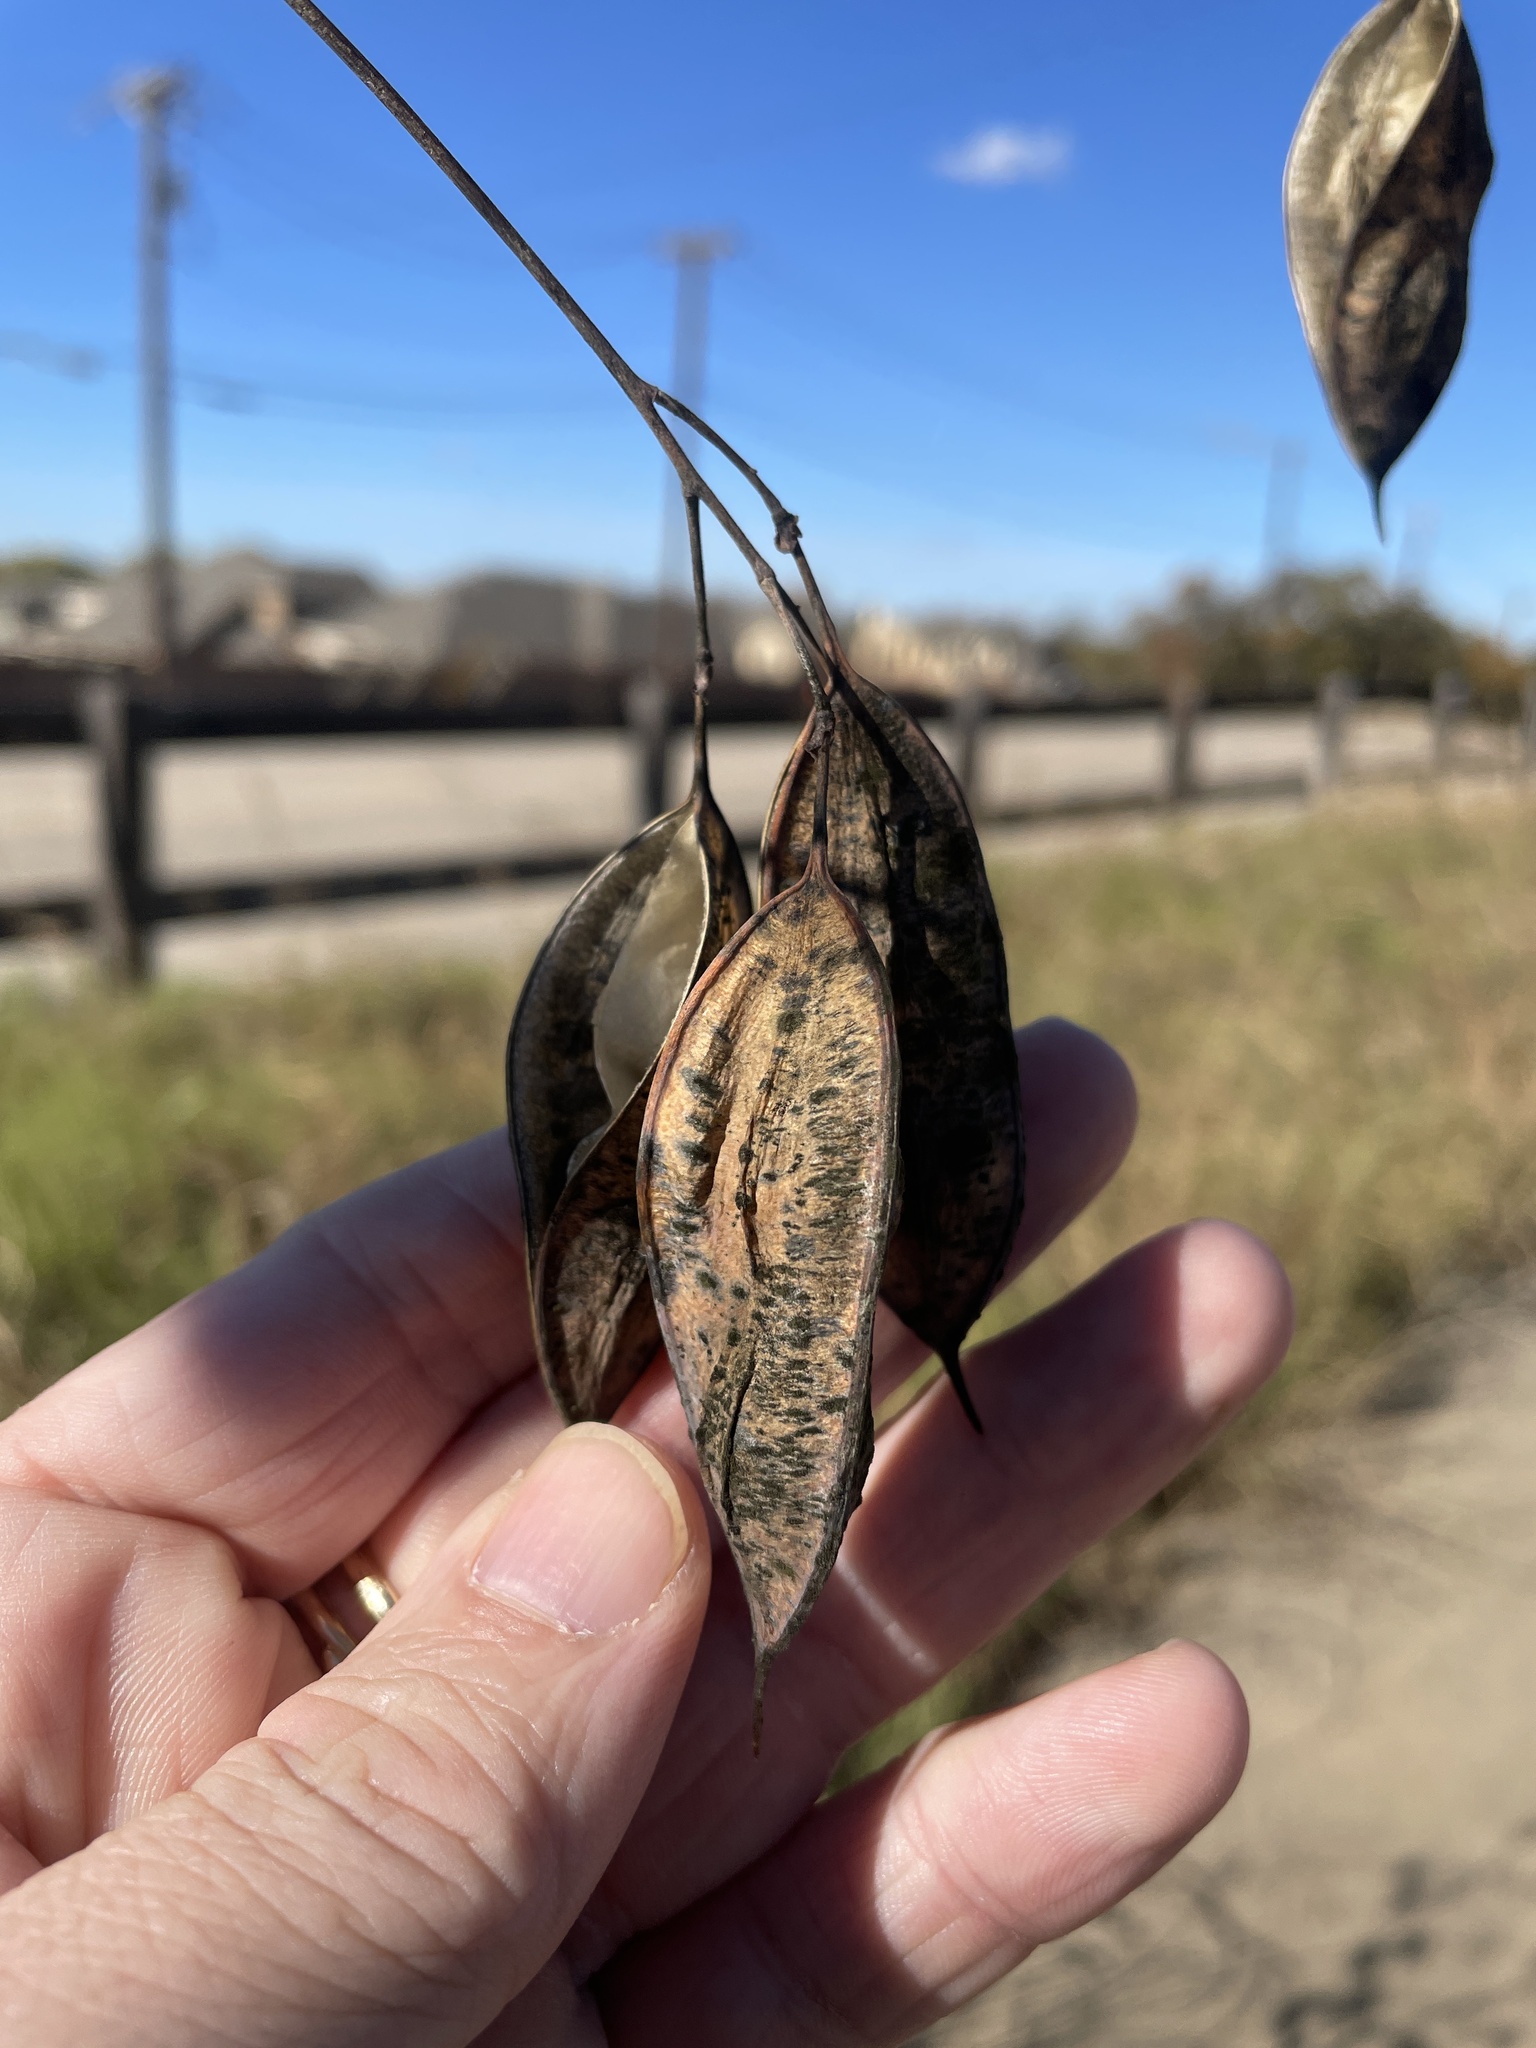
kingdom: Plantae
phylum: Tracheophyta
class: Magnoliopsida
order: Fabales
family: Fabaceae
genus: Sesbania
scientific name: Sesbania vesicaria
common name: Bagpod
